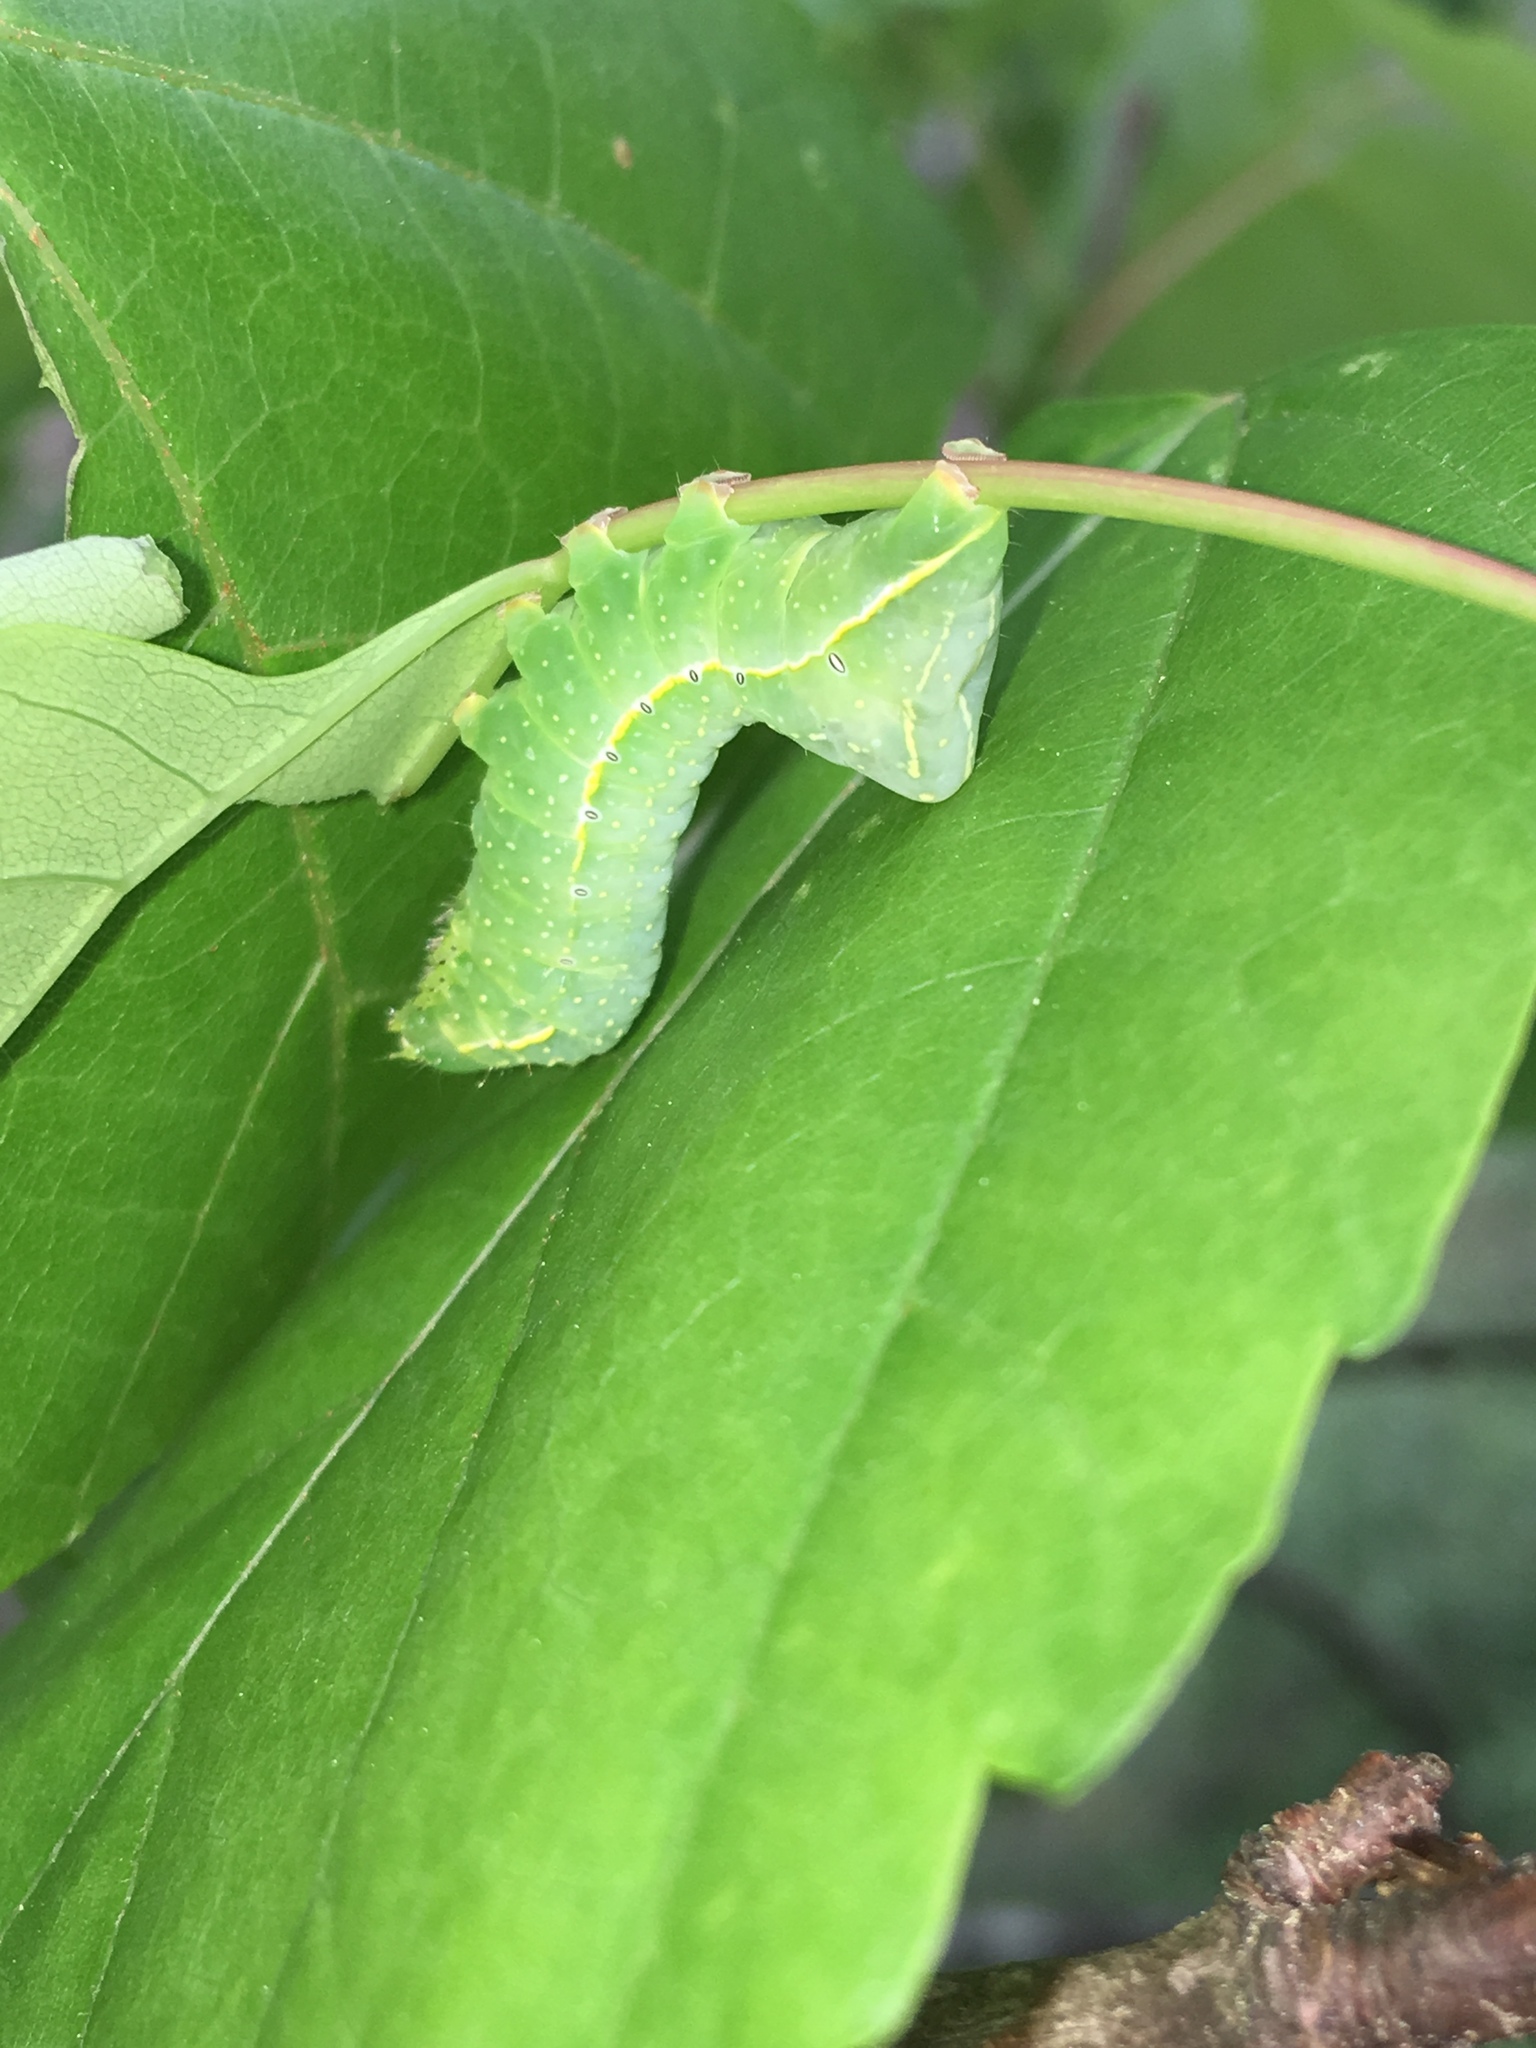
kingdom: Animalia
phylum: Arthropoda
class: Insecta
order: Lepidoptera
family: Noctuidae
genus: Amphipyra
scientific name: Amphipyra pyramidoides
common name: American copper underwing
